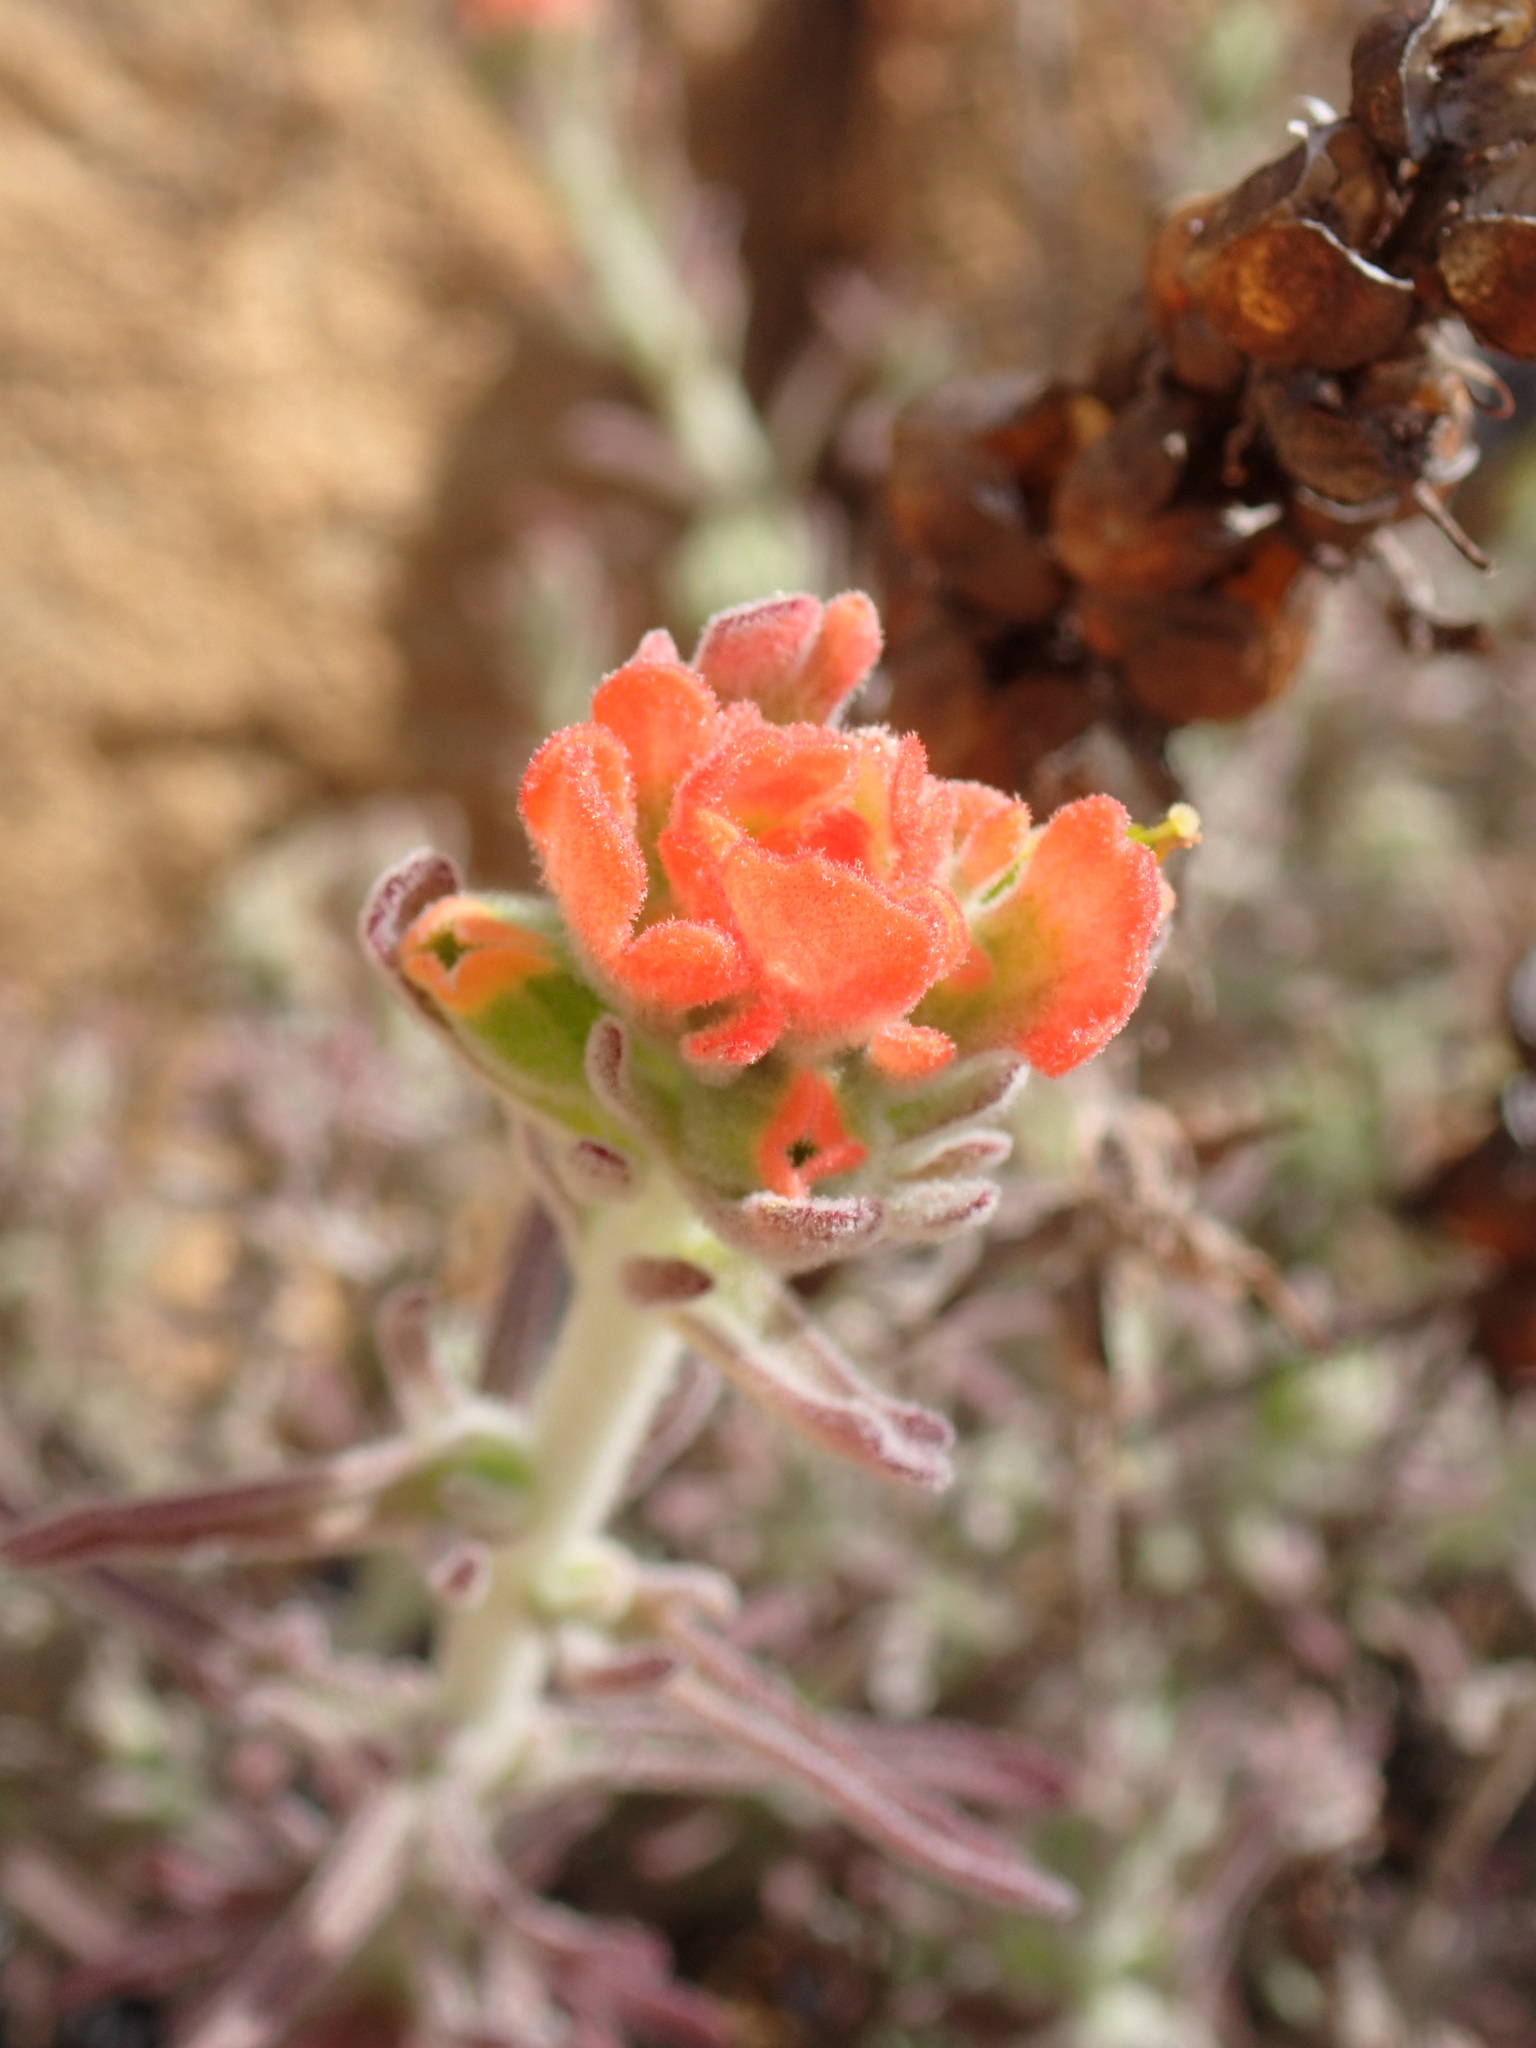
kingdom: Plantae
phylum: Tracheophyta
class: Magnoliopsida
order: Lamiales
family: Orobanchaceae
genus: Castilleja
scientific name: Castilleja foliolosa
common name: Woolly indian paintbrush
